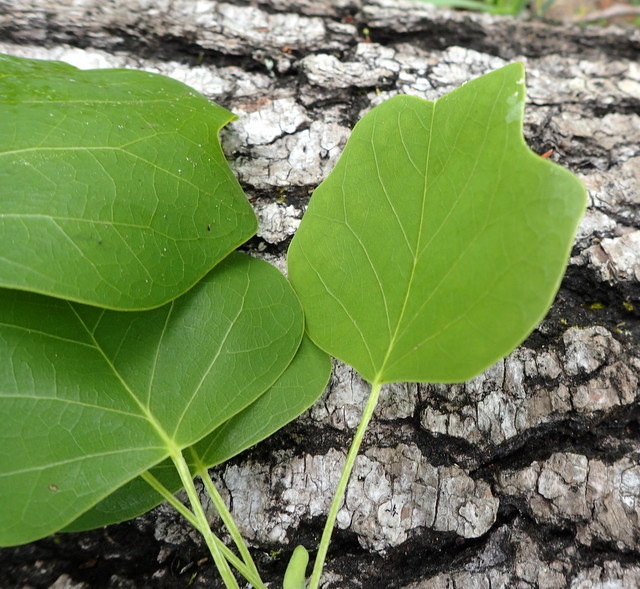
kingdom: Plantae
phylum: Tracheophyta
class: Magnoliopsida
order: Magnoliales
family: Magnoliaceae
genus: Liriodendron
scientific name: Liriodendron tulipifera
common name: Tulip tree
